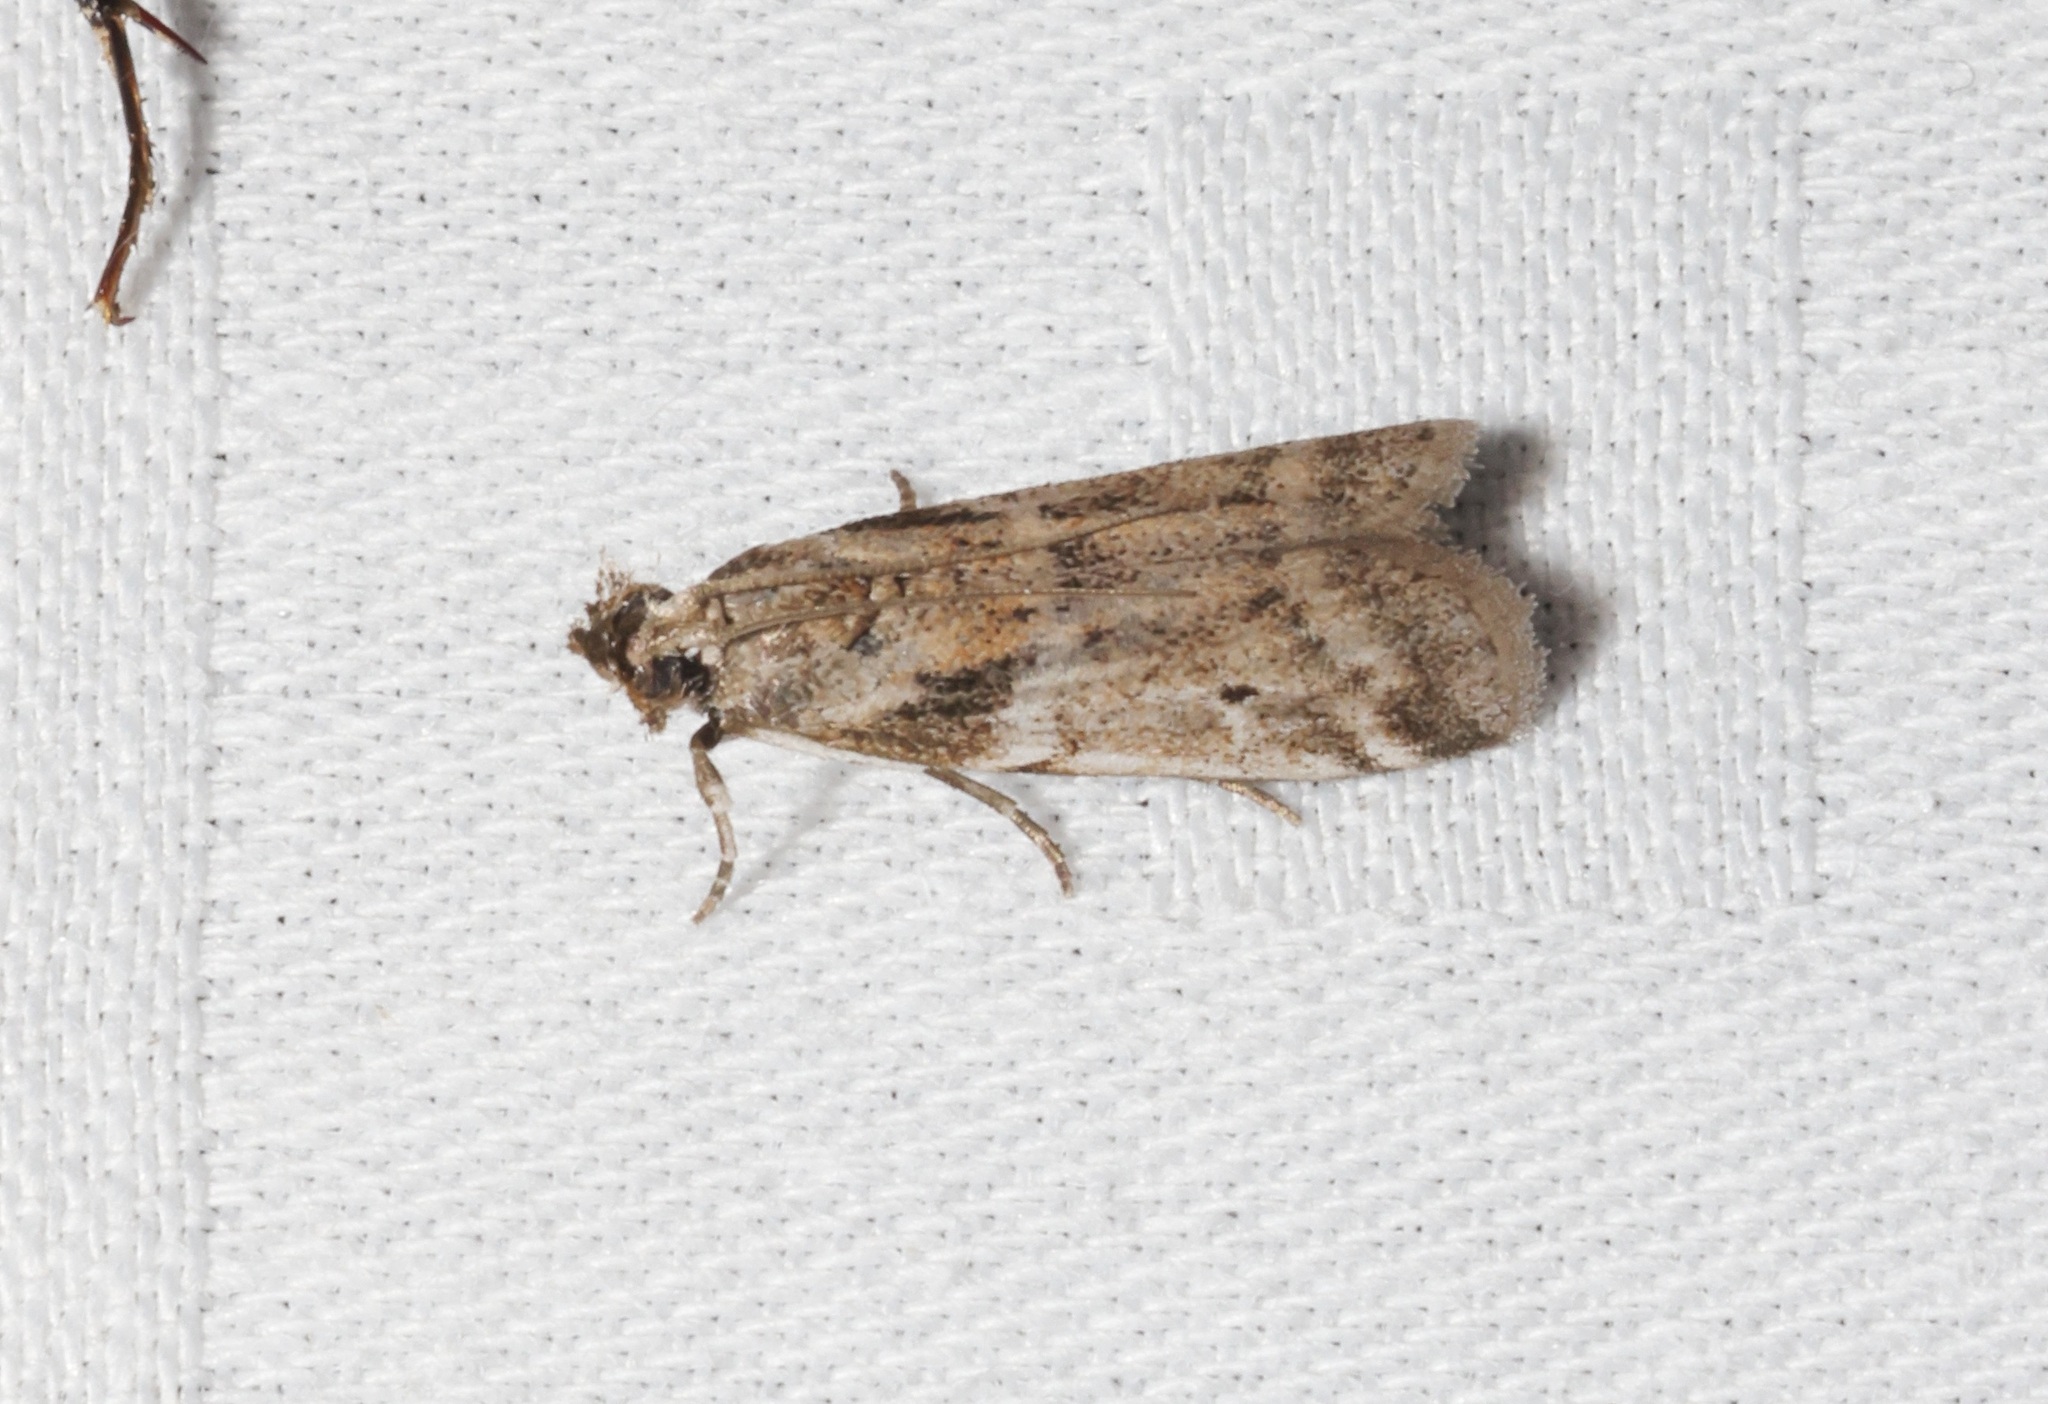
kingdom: Animalia
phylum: Arthropoda
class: Insecta
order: Lepidoptera
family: Pyralidae
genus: Vinicia
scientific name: Vinicia
